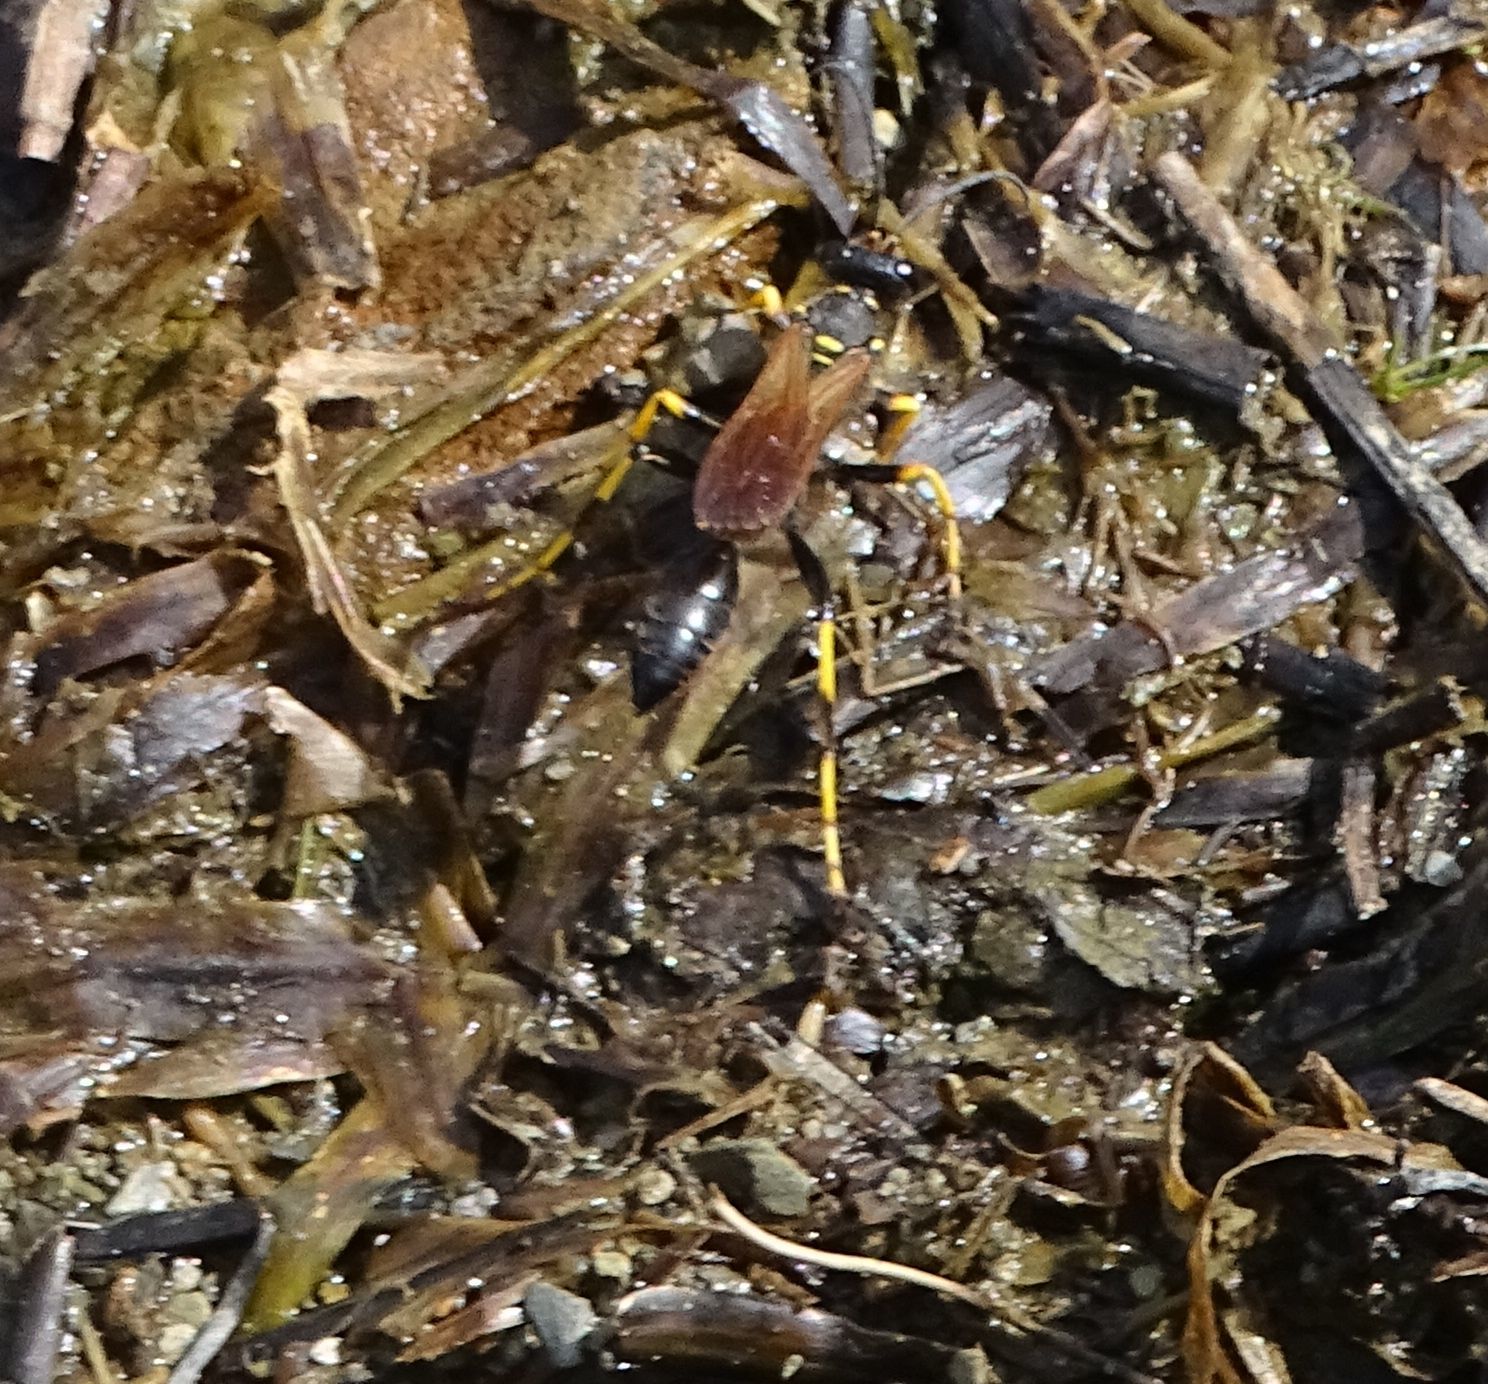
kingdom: Animalia
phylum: Arthropoda
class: Insecta
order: Hymenoptera
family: Sphecidae
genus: Sceliphron
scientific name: Sceliphron caementarium
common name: Mud dauber
